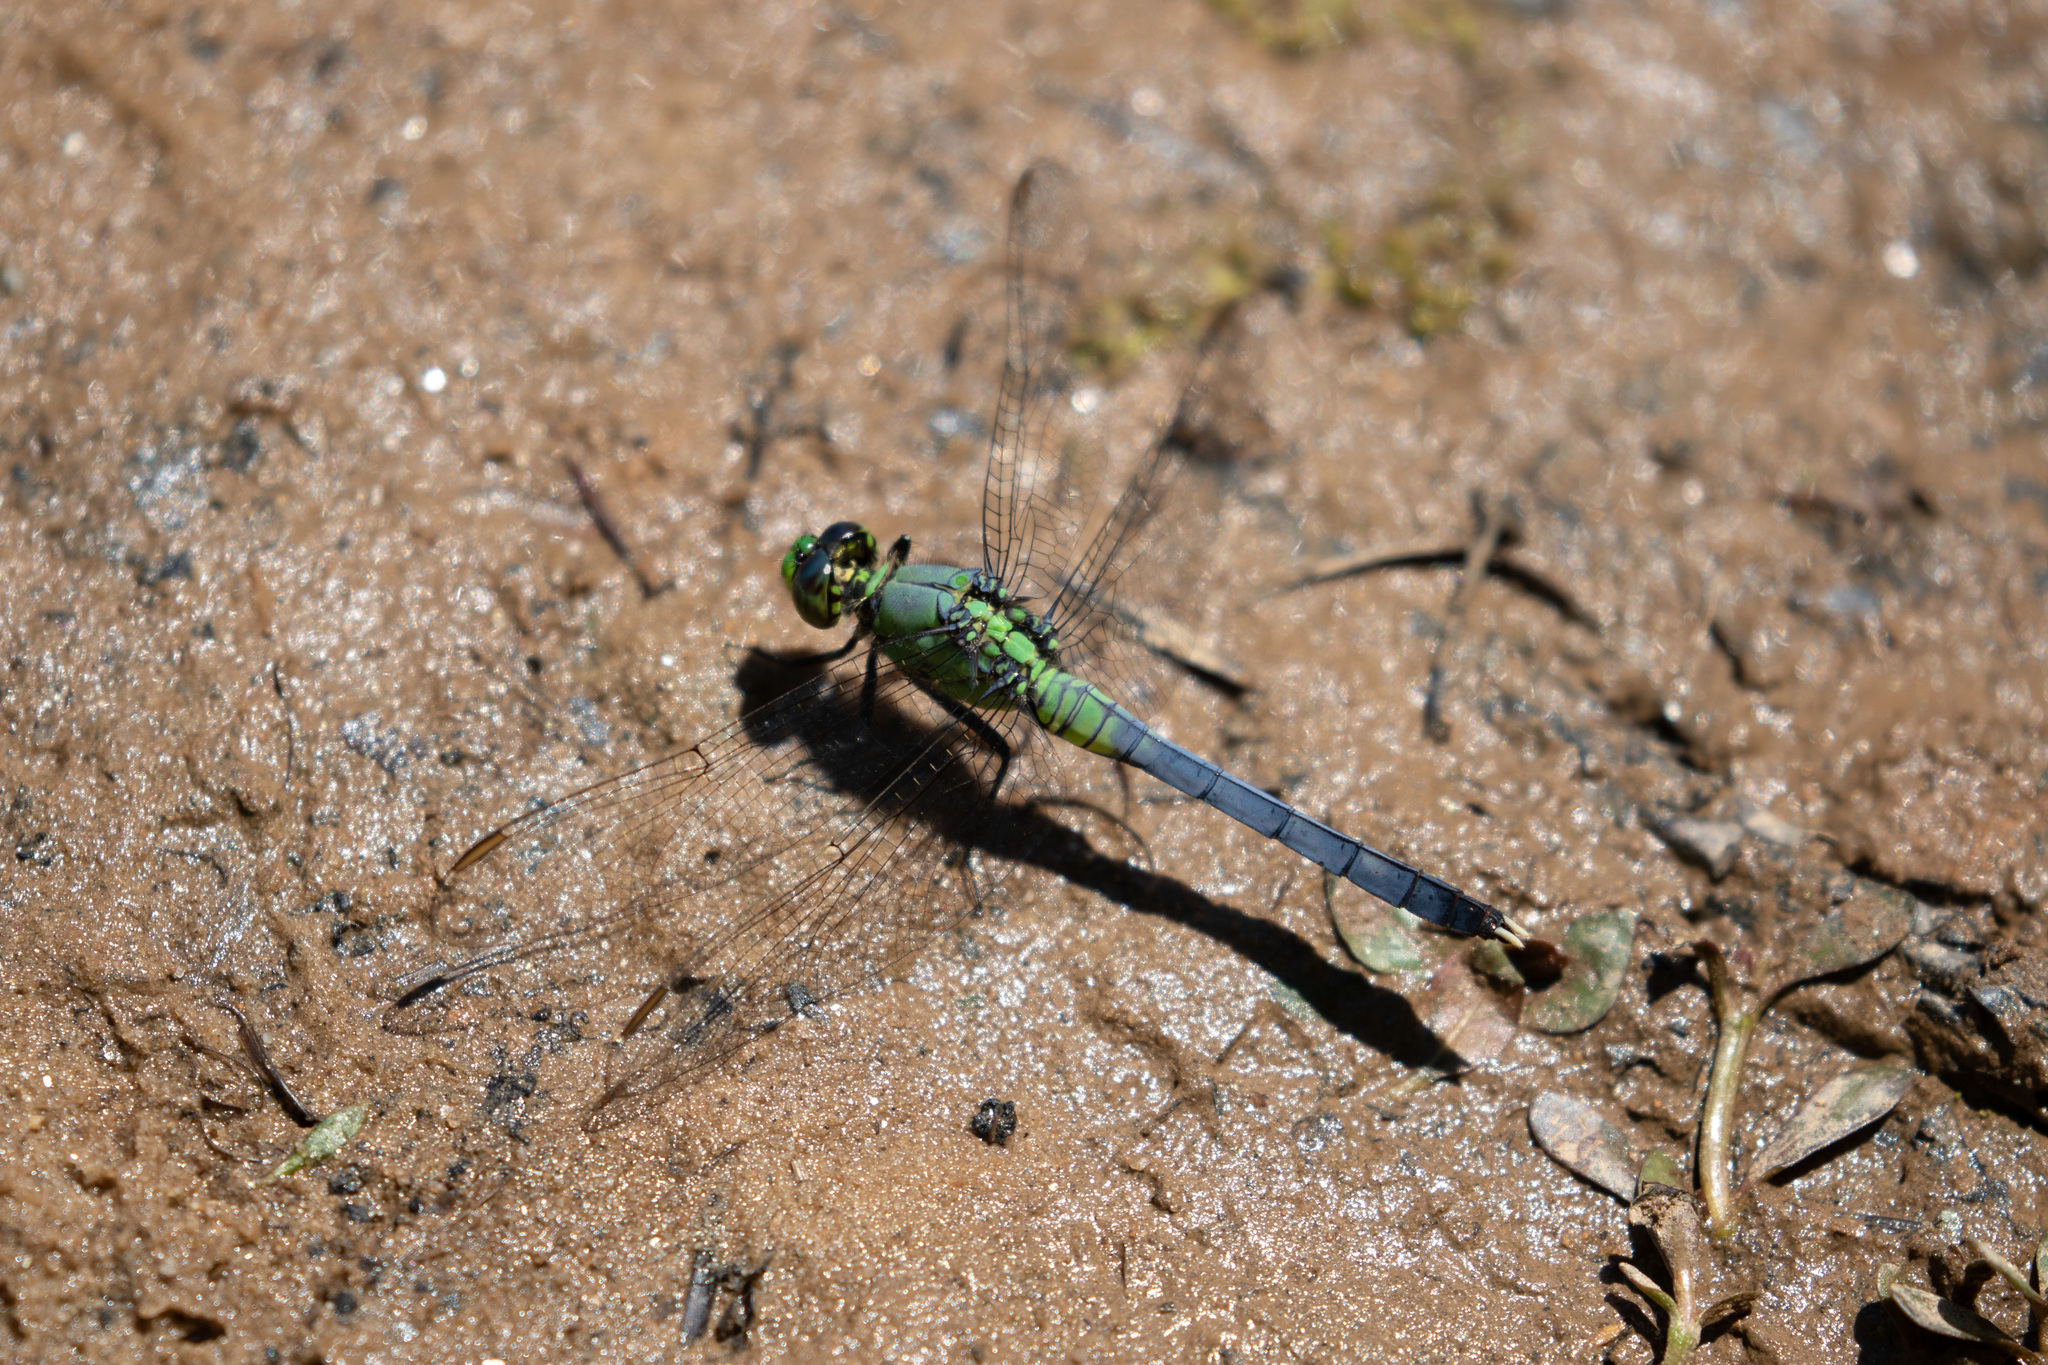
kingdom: Animalia
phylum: Arthropoda
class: Insecta
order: Odonata
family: Libellulidae
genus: Erythemis
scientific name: Erythemis simplicicollis
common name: Eastern pondhawk
